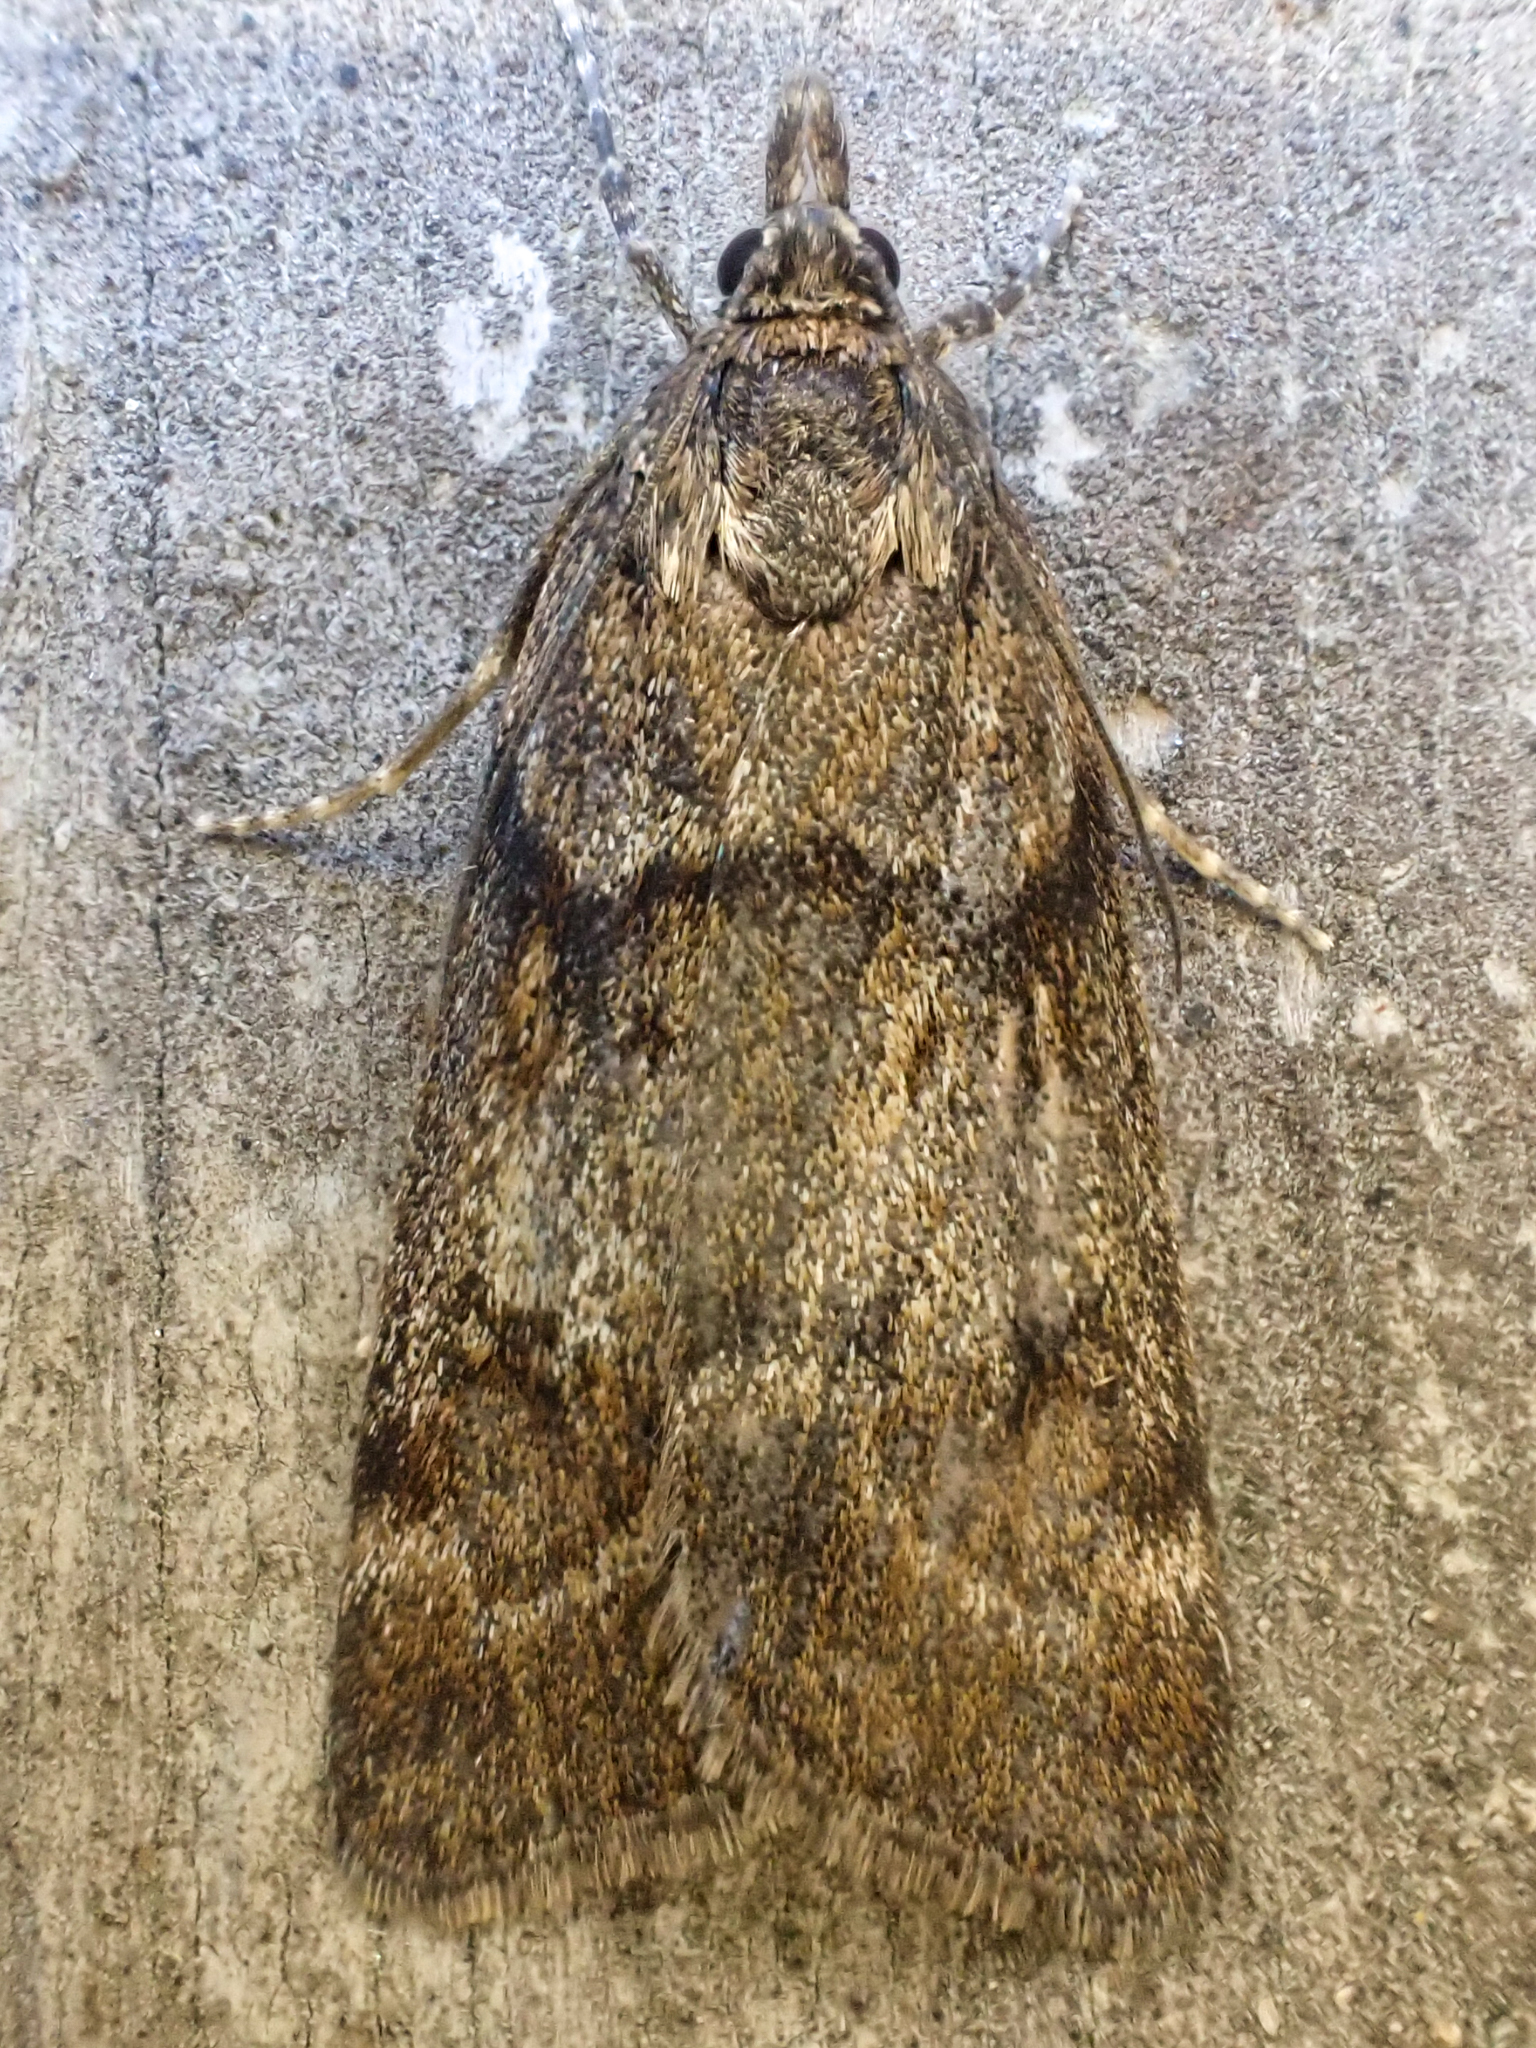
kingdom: Animalia
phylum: Arthropoda
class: Insecta
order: Lepidoptera
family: Crambidae
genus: Gesneria
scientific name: Gesneria centuriella
